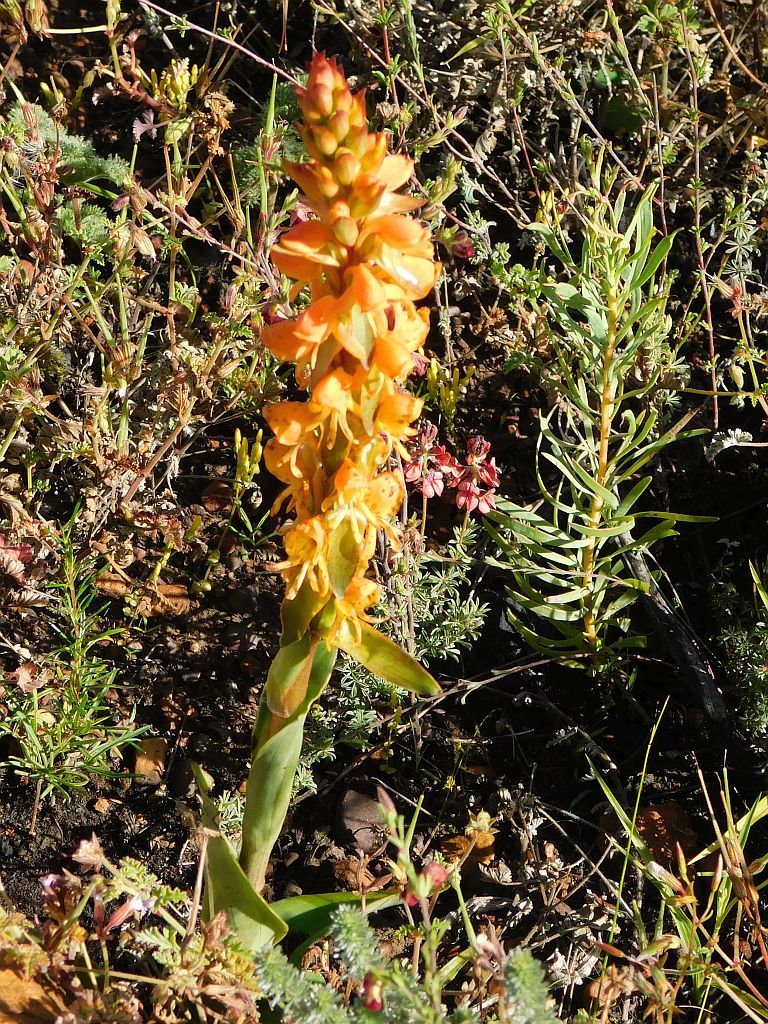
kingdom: Plantae
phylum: Tracheophyta
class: Liliopsida
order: Asparagales
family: Orchidaceae
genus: Satyrium
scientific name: Satyrium coriifolium
